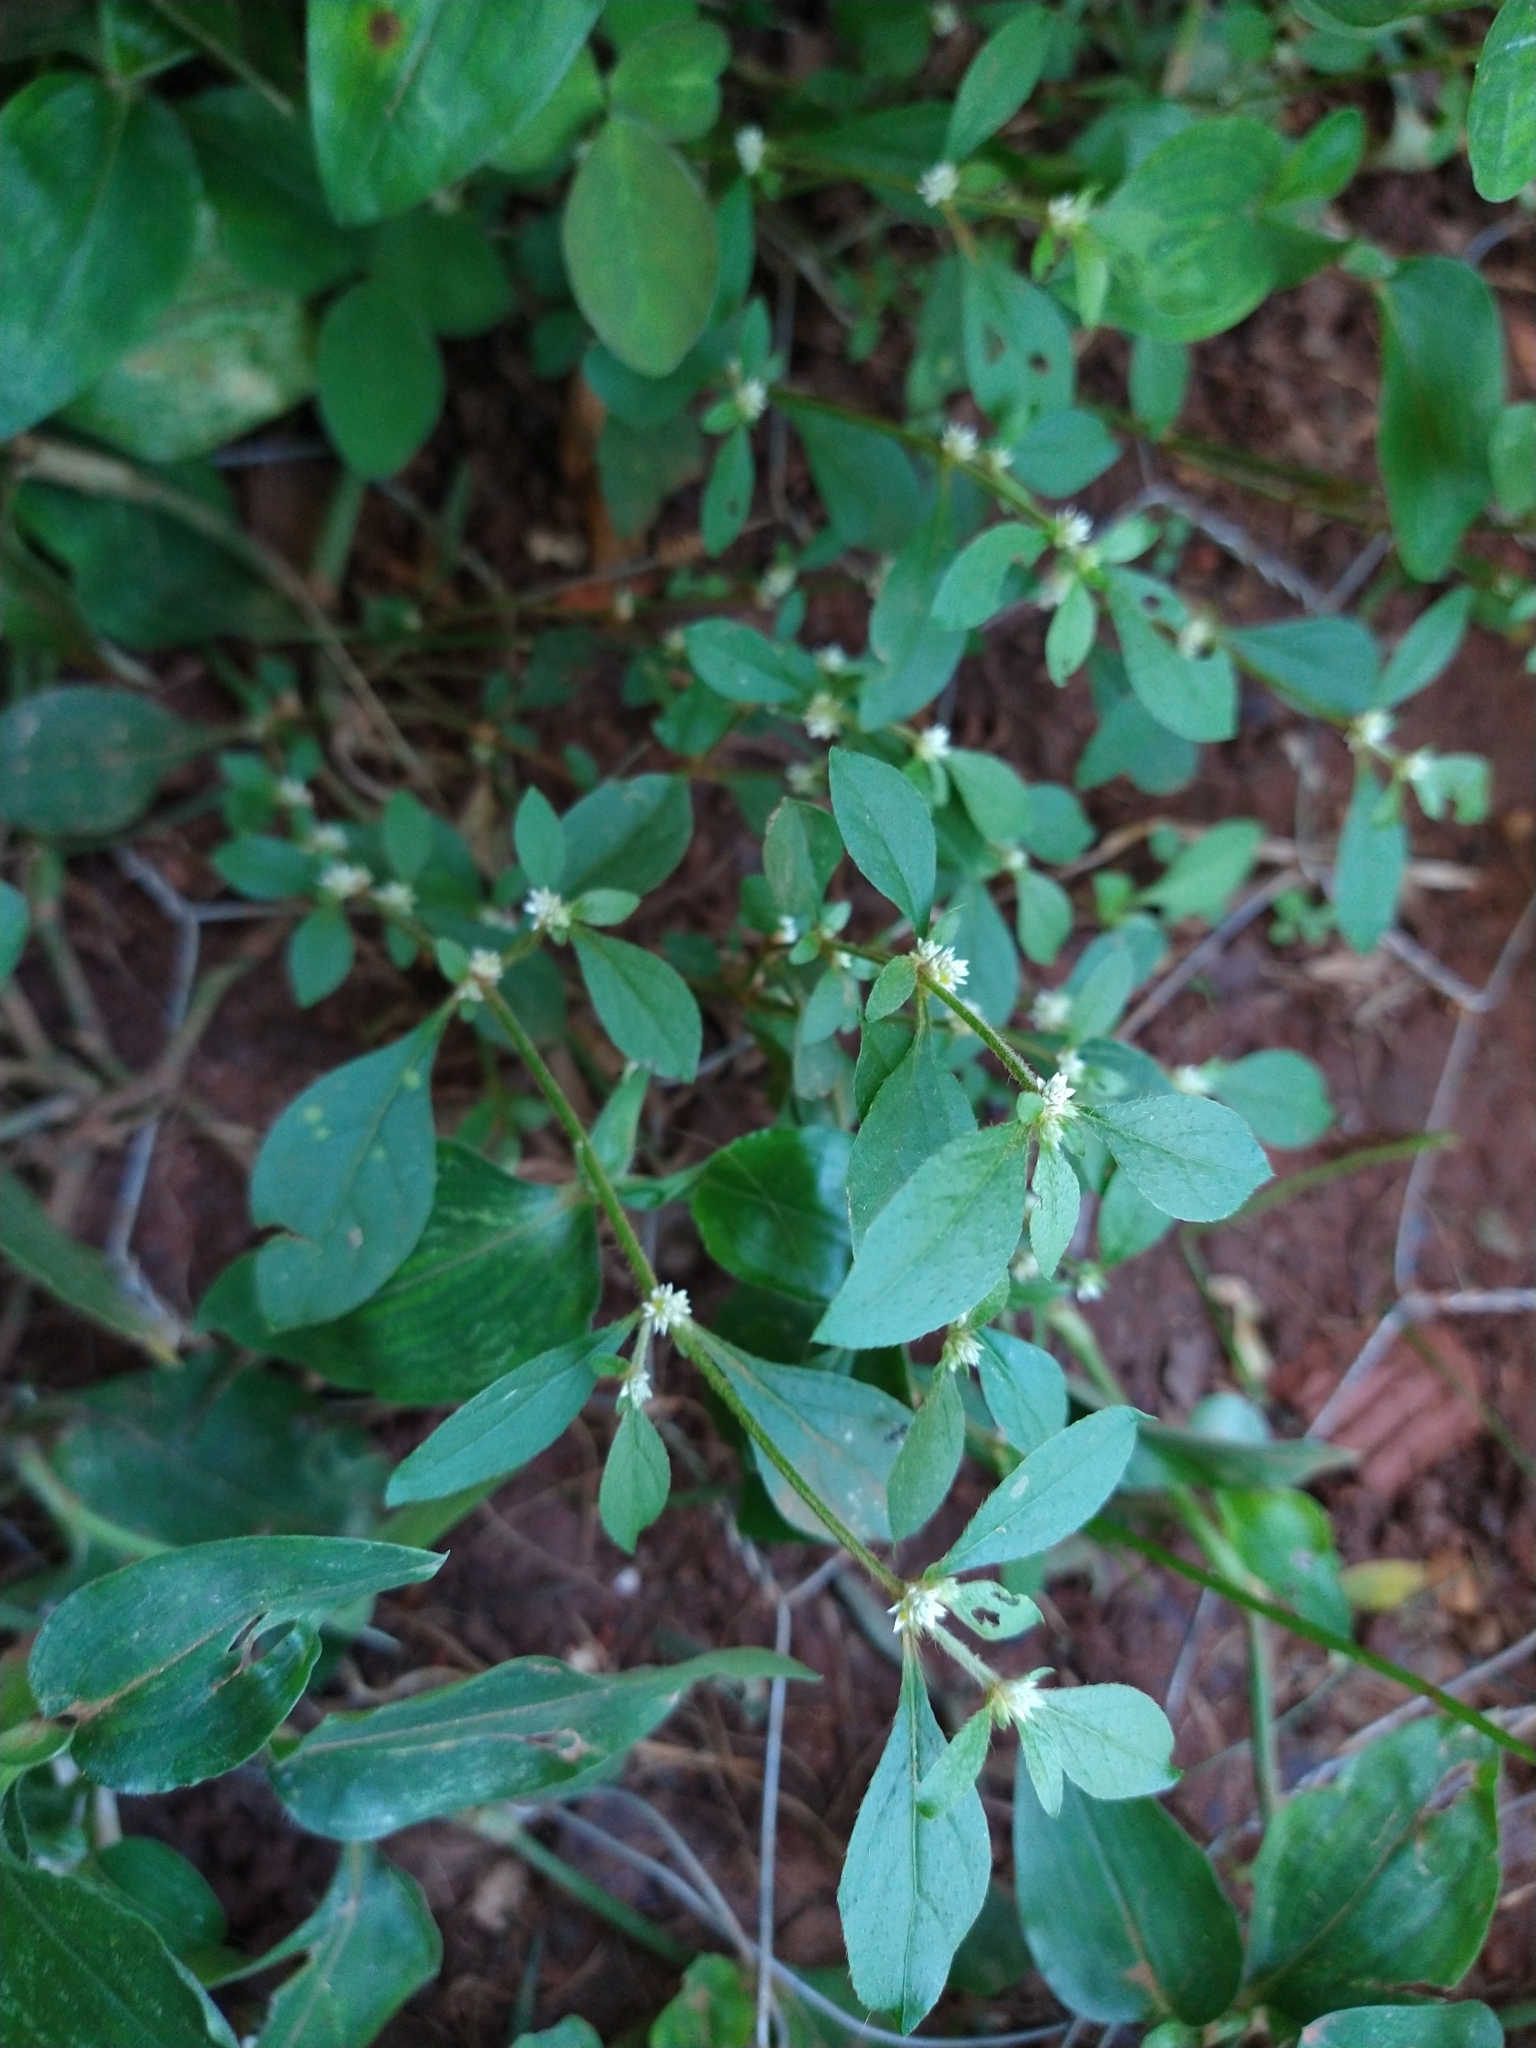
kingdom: Plantae
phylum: Tracheophyta
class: Magnoliopsida
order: Caryophyllales
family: Amaranthaceae
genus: Alternanthera
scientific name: Alternanthera ficoidea
